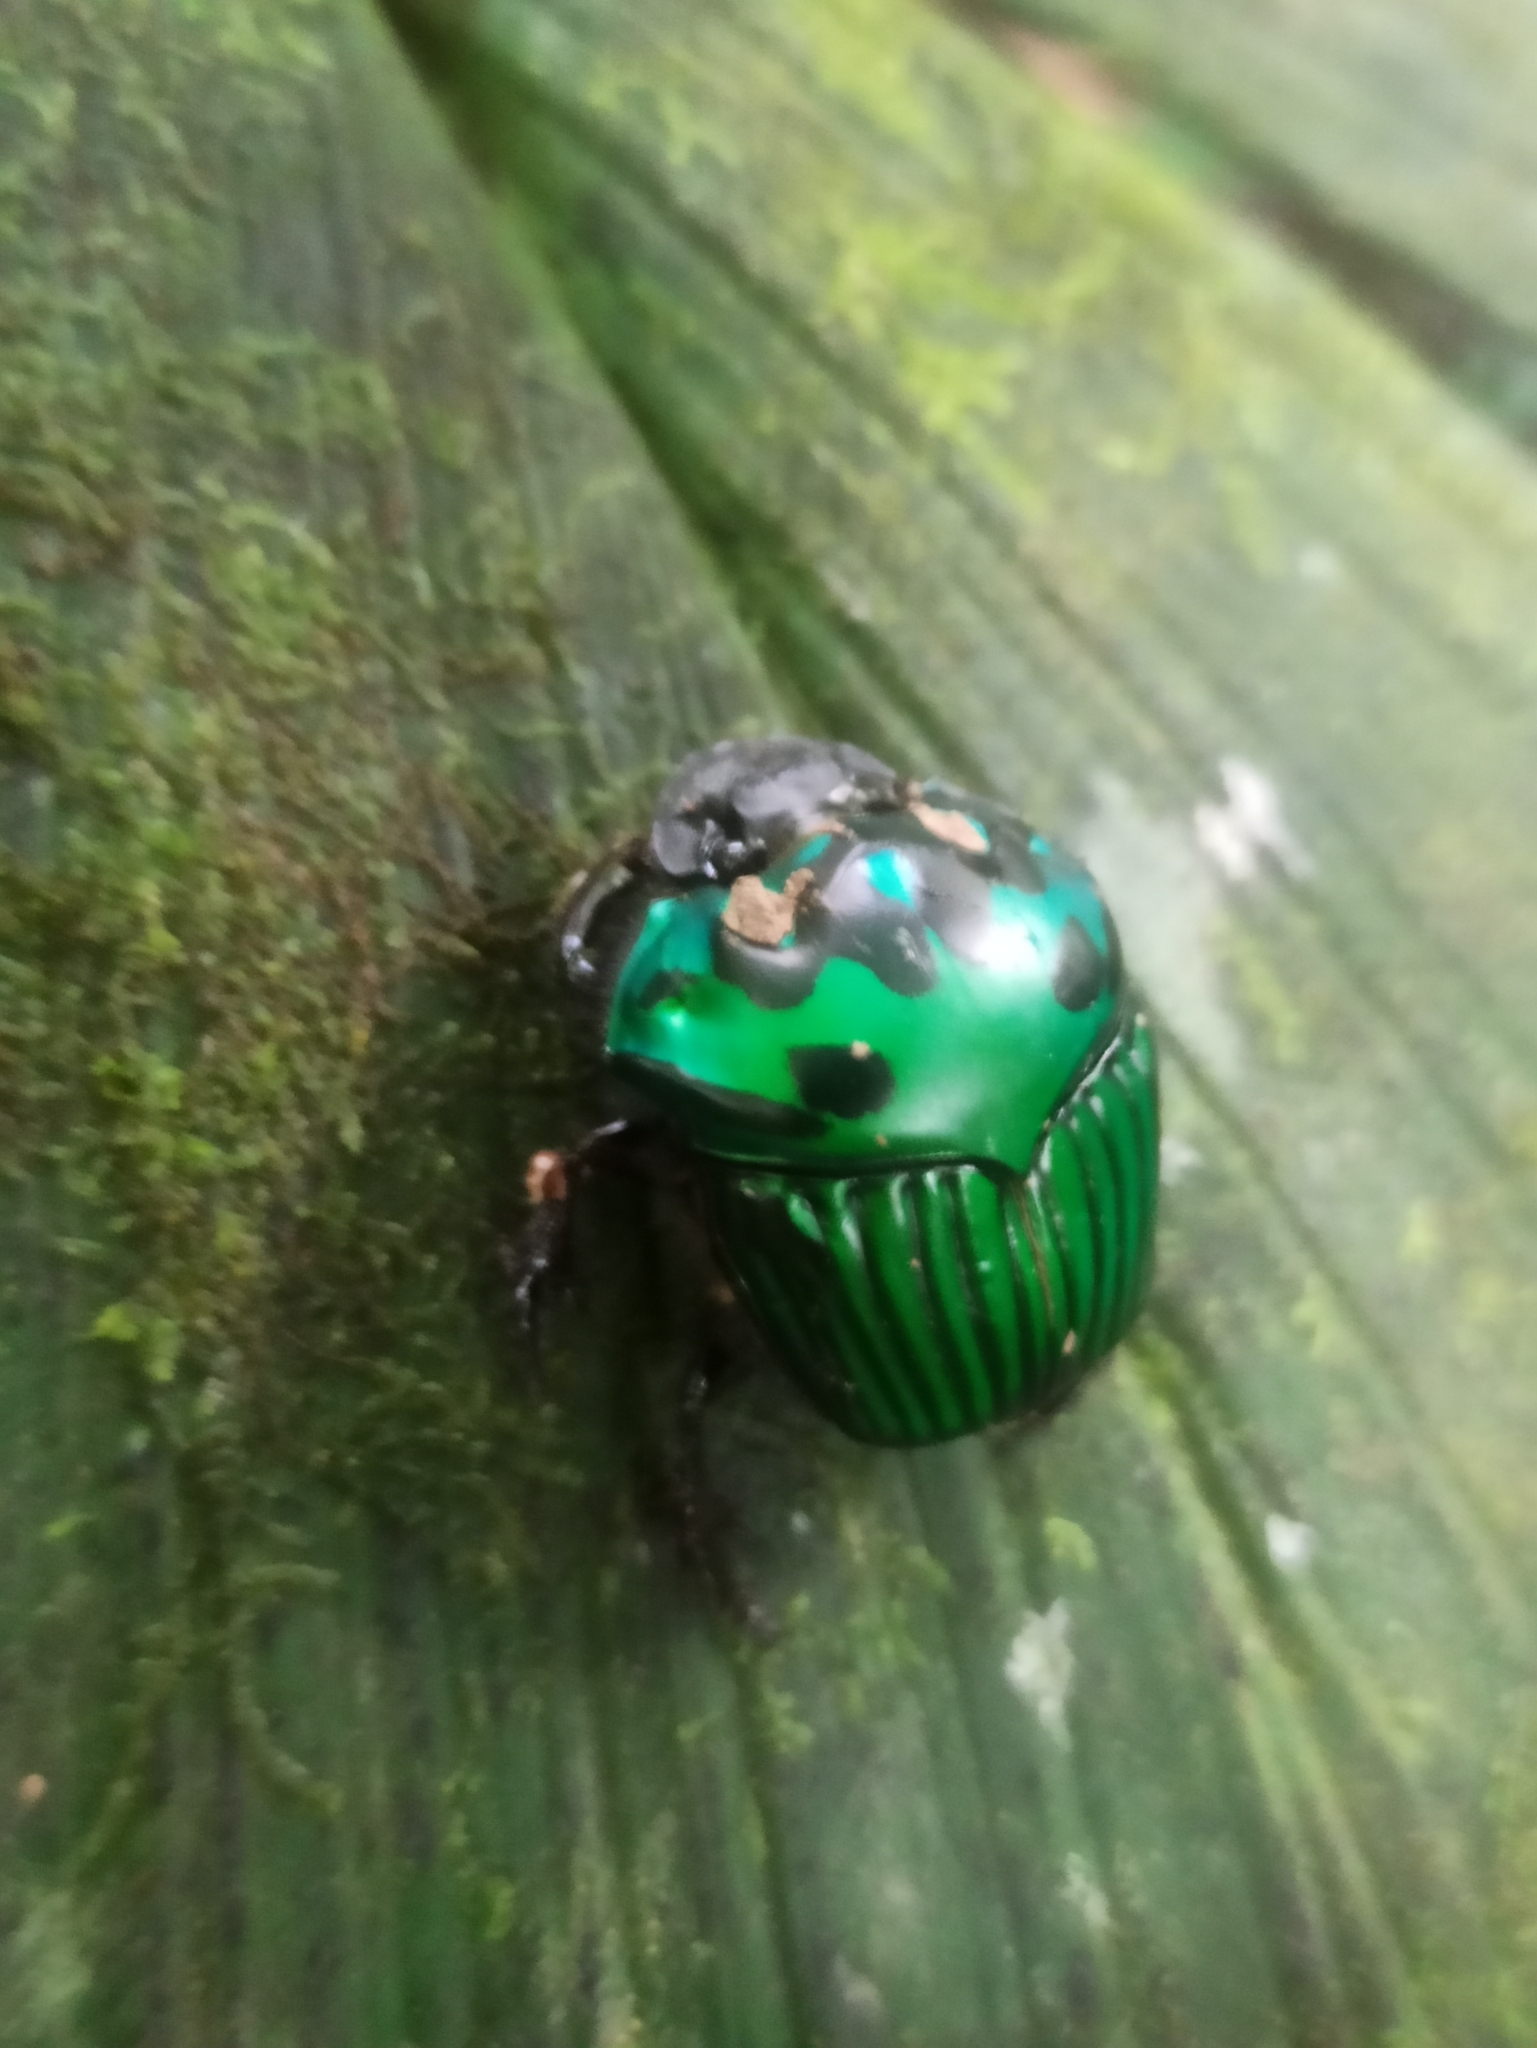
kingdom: Animalia
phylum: Arthropoda
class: Insecta
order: Coleoptera
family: Scarabaeidae
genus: Oxysternon
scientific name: Oxysternon conspicillatum
